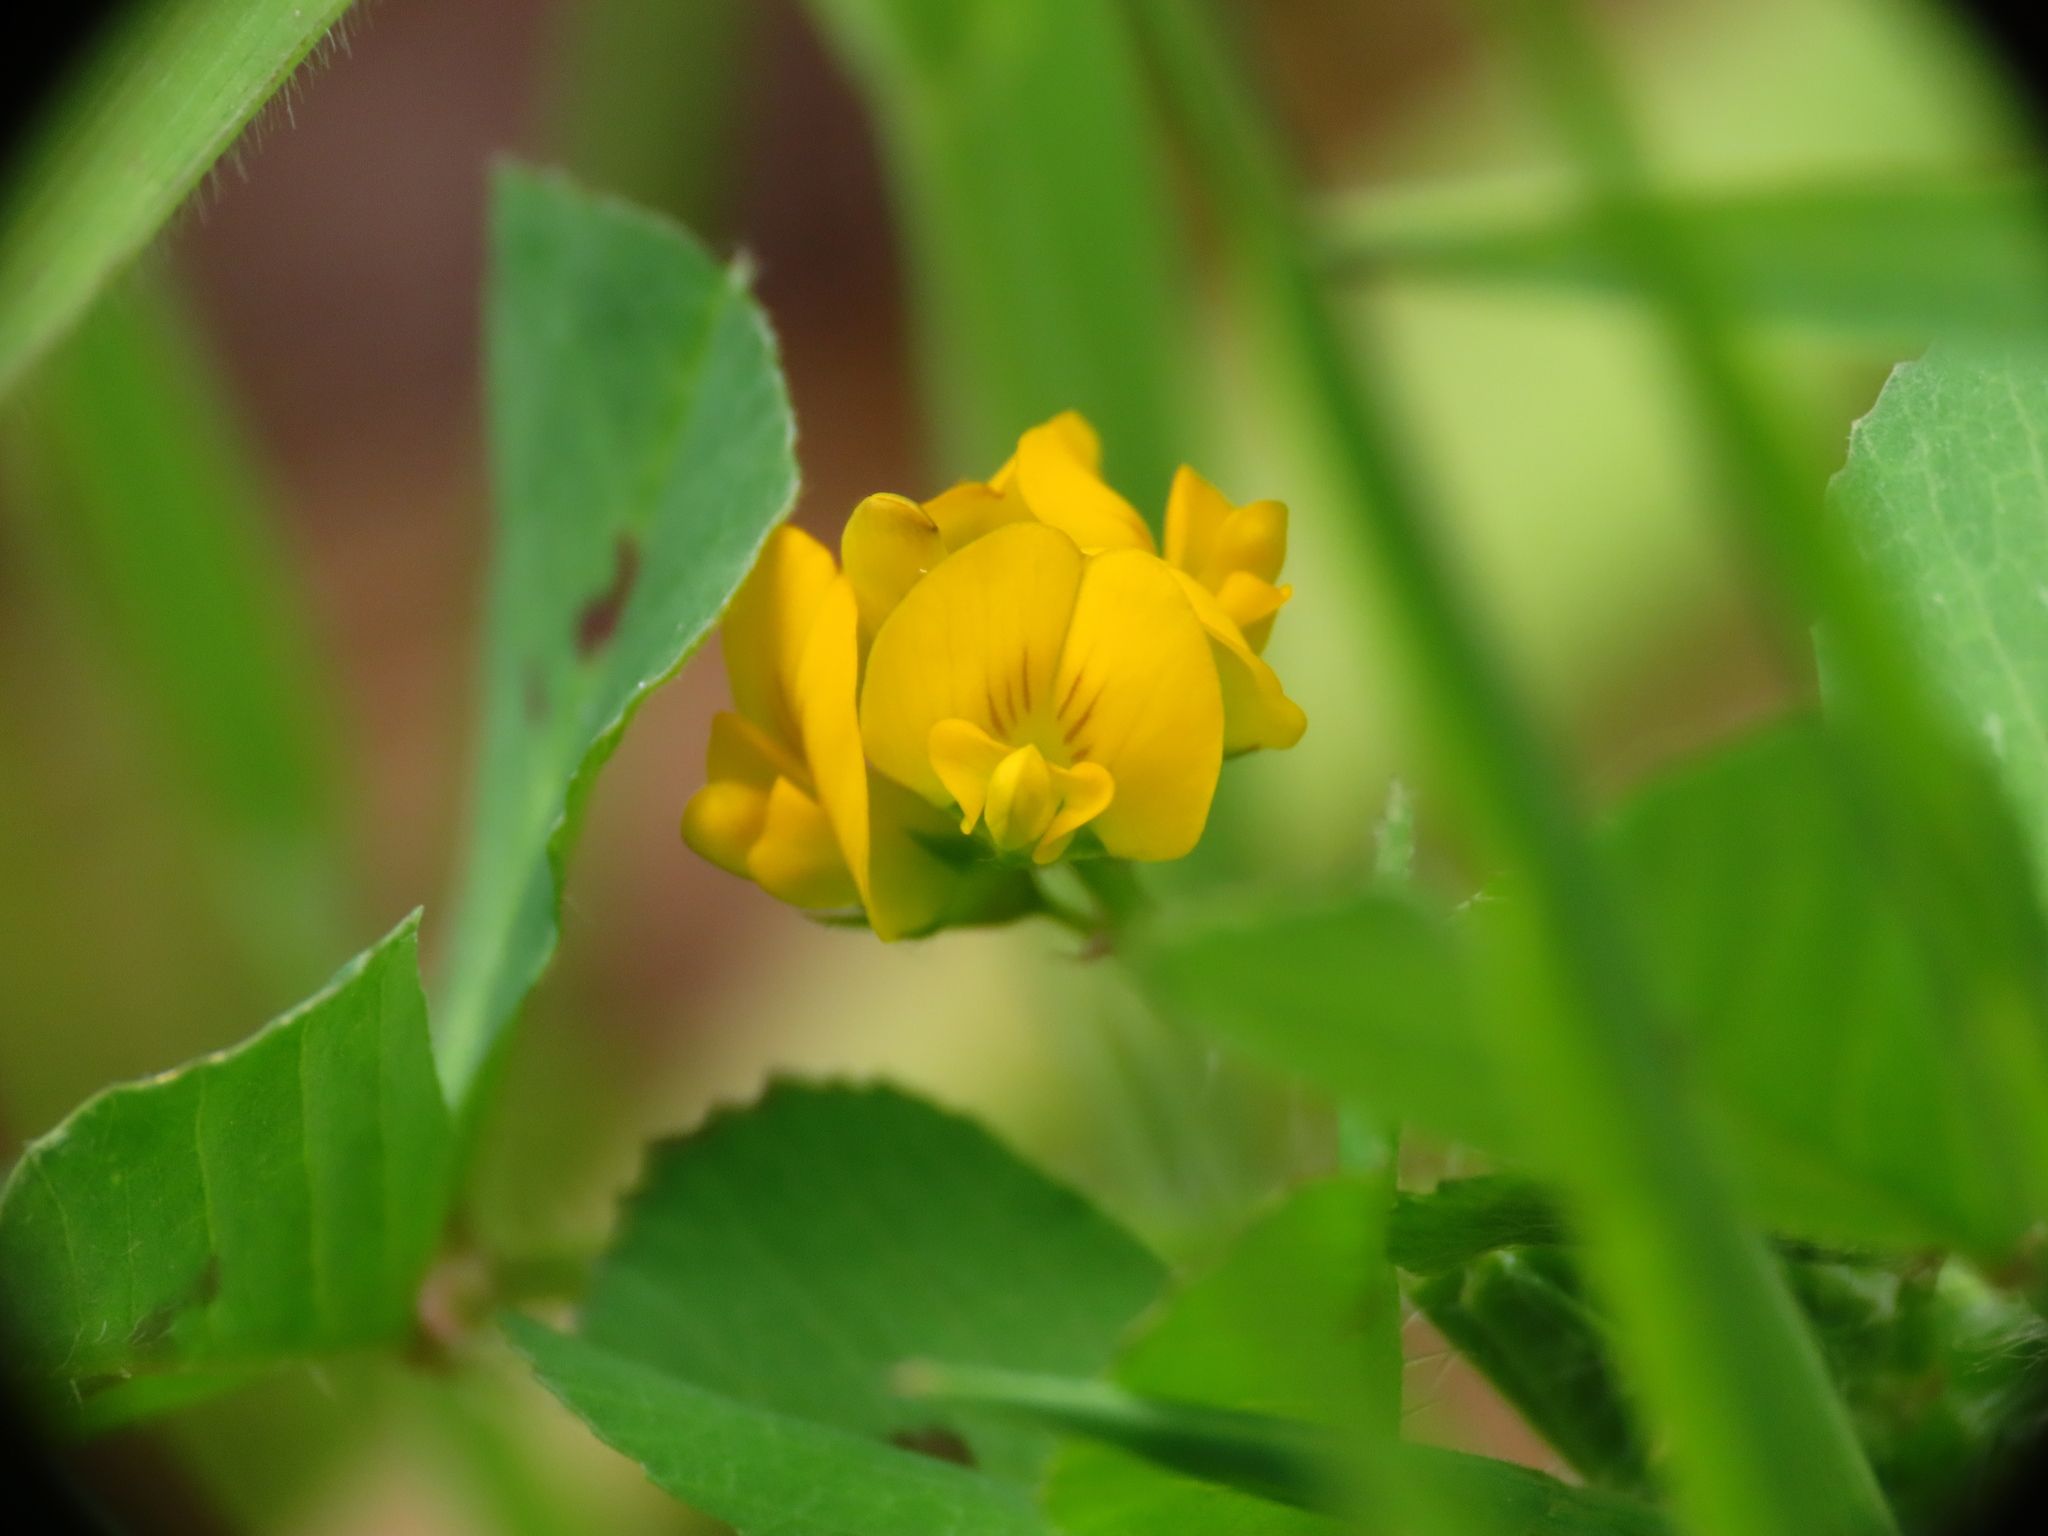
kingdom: Plantae
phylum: Tracheophyta
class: Magnoliopsida
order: Fabales
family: Fabaceae
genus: Medicago
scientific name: Medicago arabica
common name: Spotted medick
